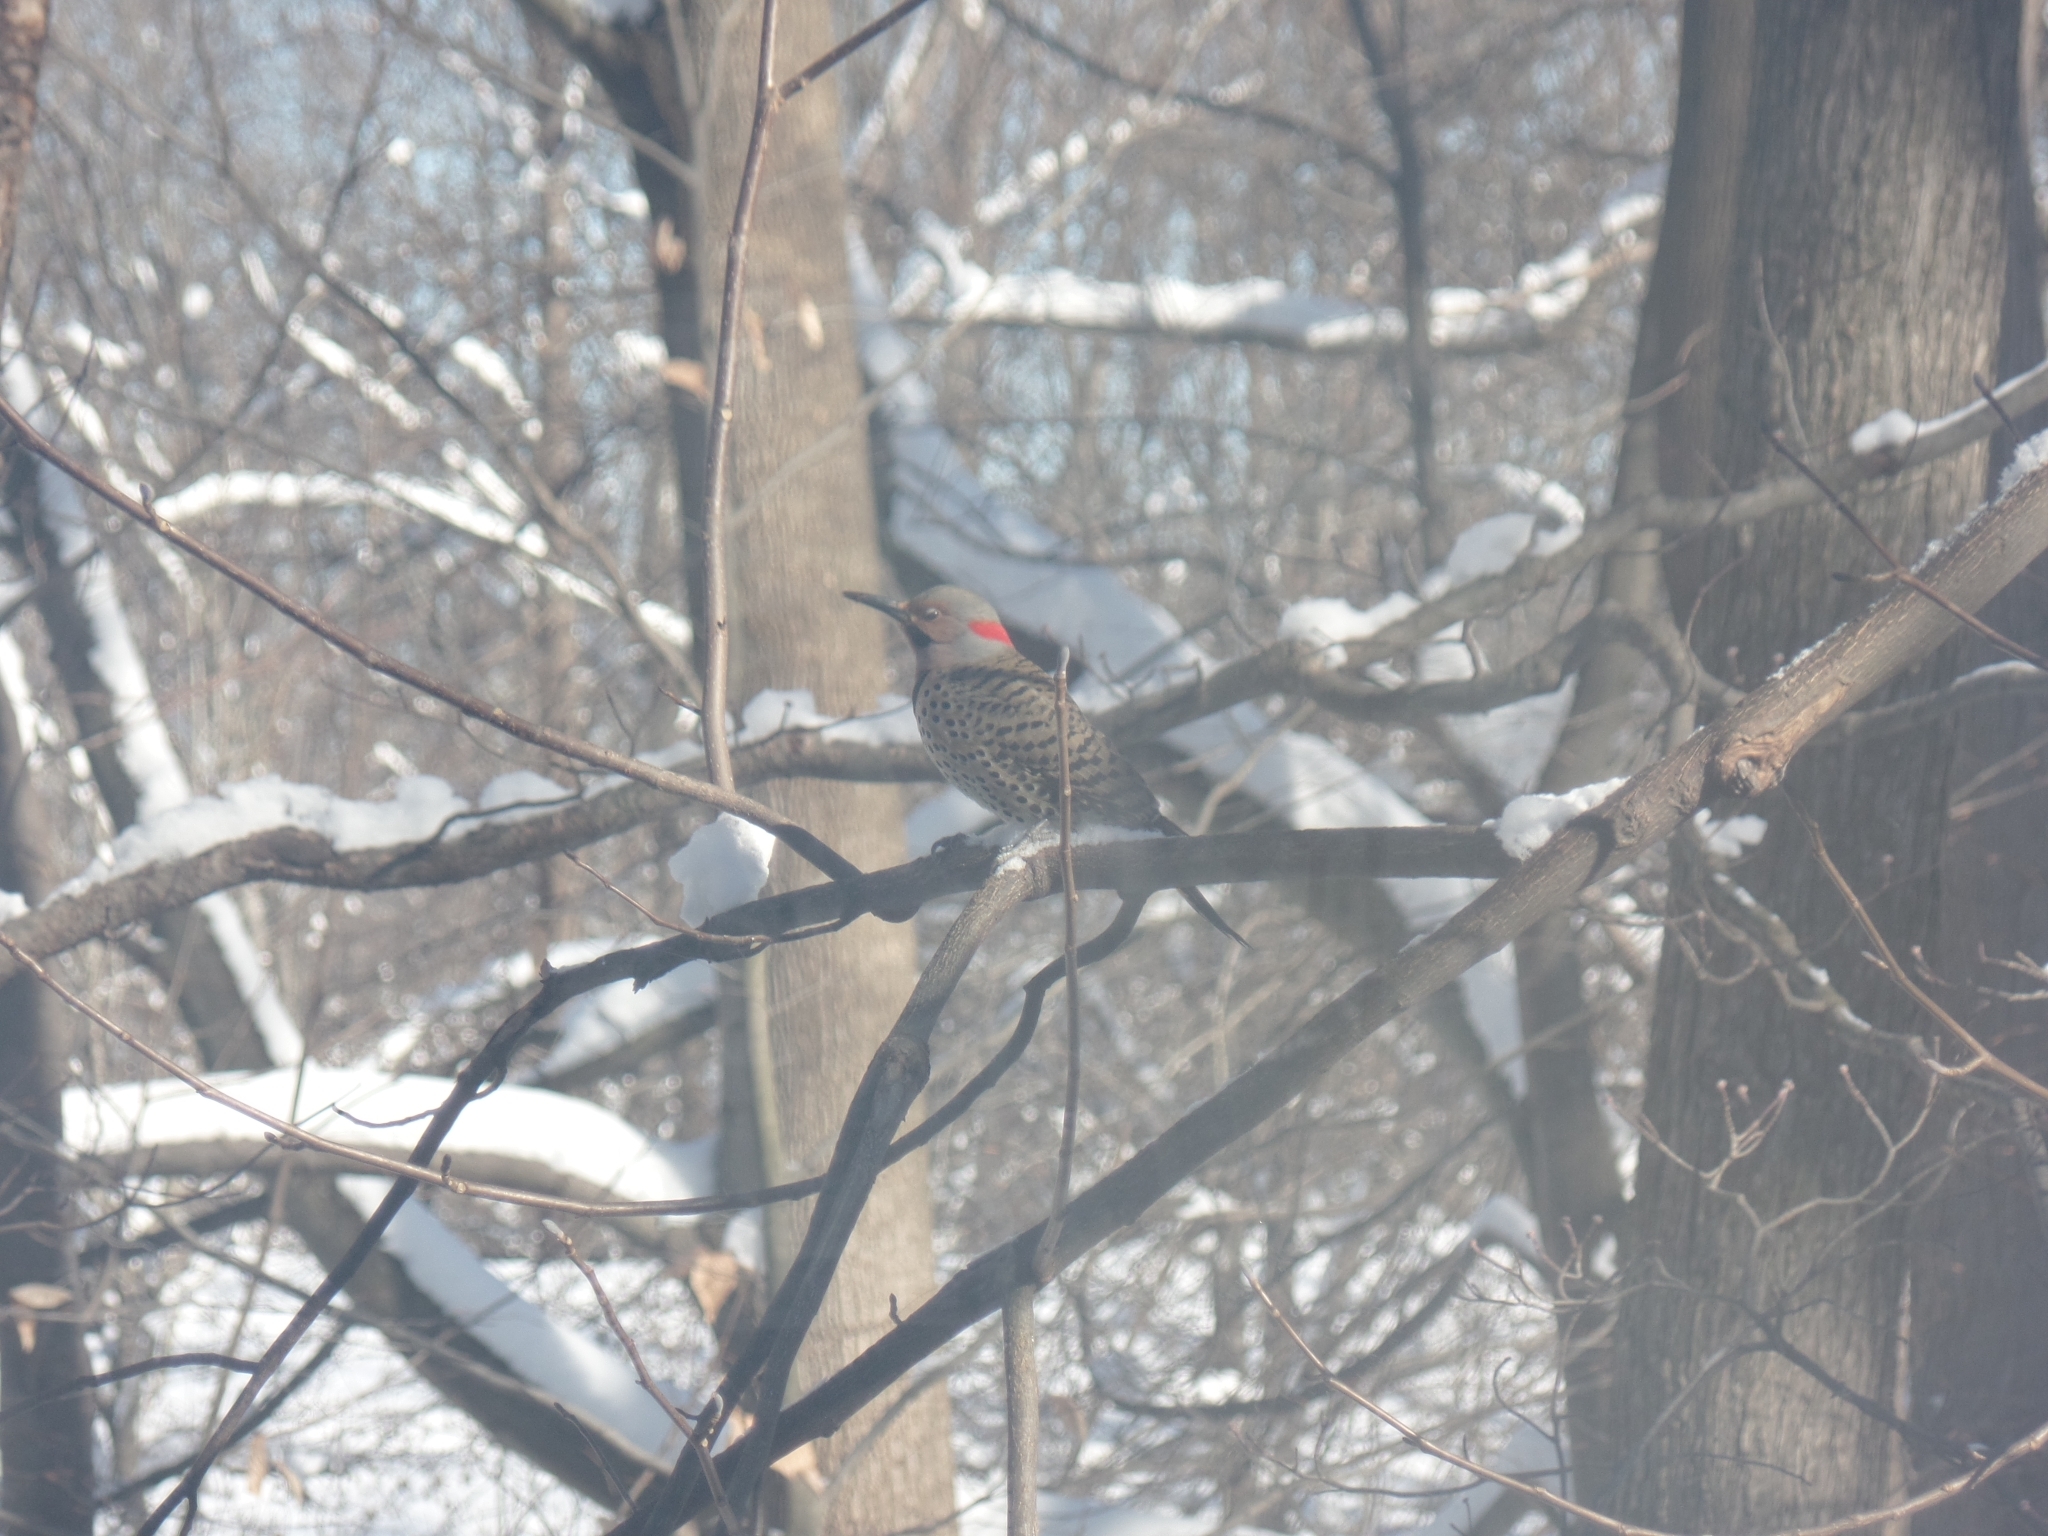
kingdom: Animalia
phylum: Chordata
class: Aves
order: Piciformes
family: Picidae
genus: Colaptes
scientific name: Colaptes auratus
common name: Northern flicker
